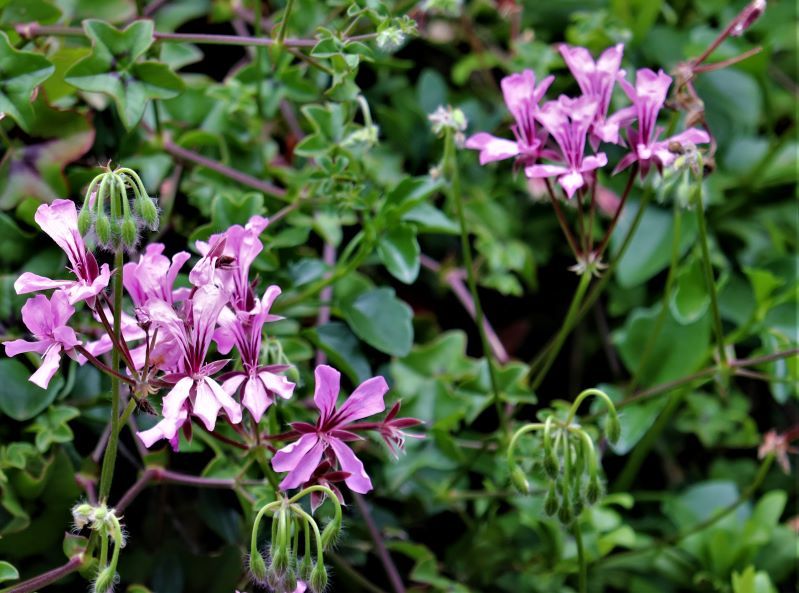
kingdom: Plantae
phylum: Tracheophyta
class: Magnoliopsida
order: Geraniales
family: Geraniaceae
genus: Pelargonium
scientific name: Pelargonium peltatum
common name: Ivyleaf geranium
